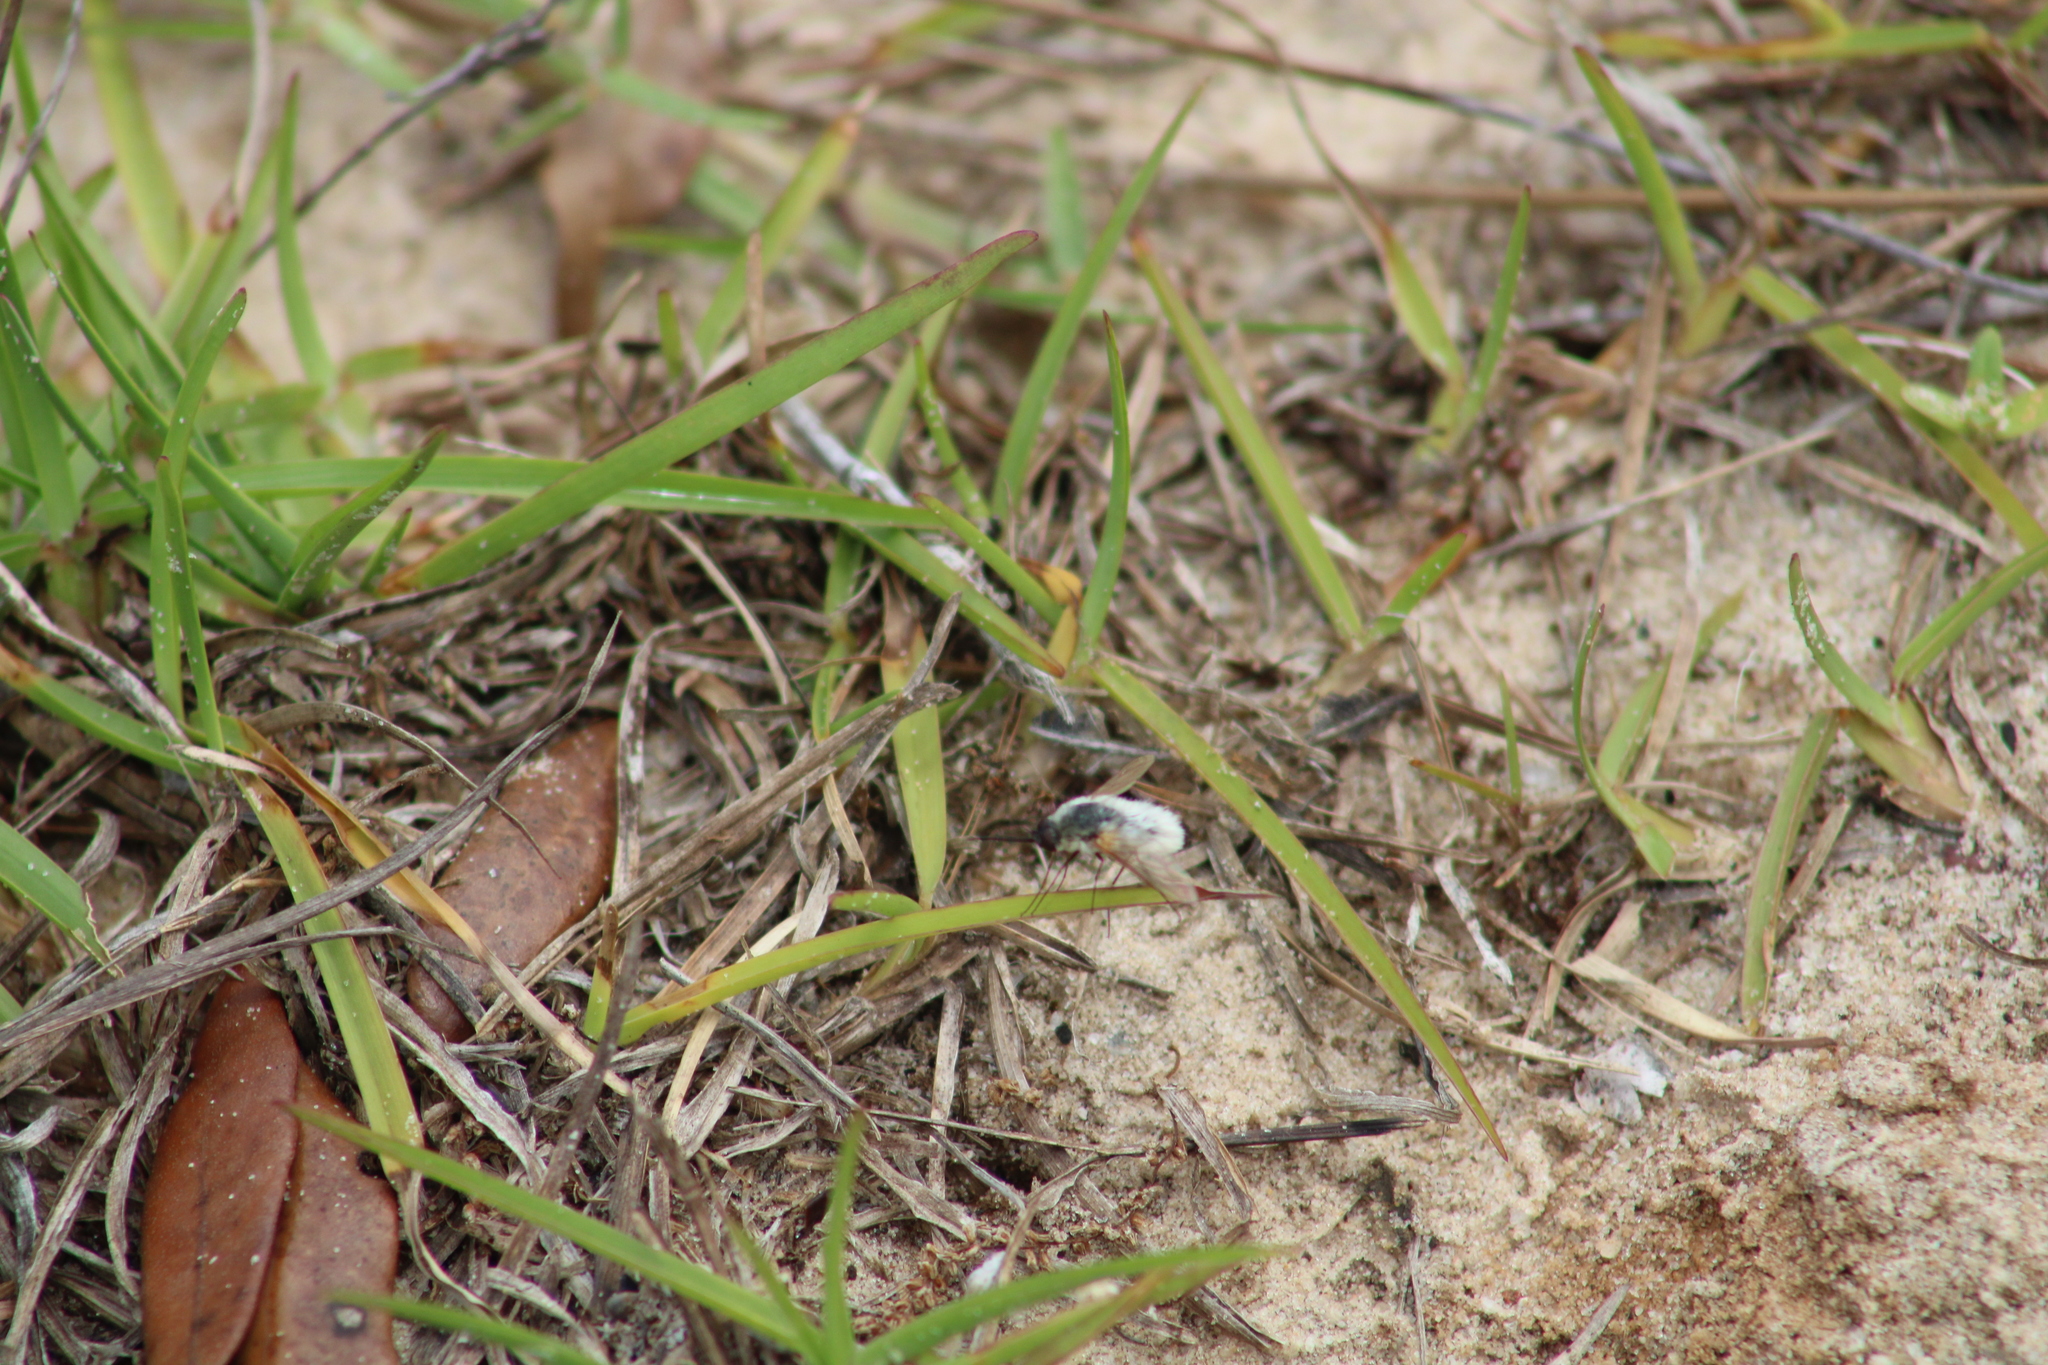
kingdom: Animalia
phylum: Arthropoda
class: Insecta
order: Diptera
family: Bombyliidae
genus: Systoechus
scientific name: Systoechus candidulus
